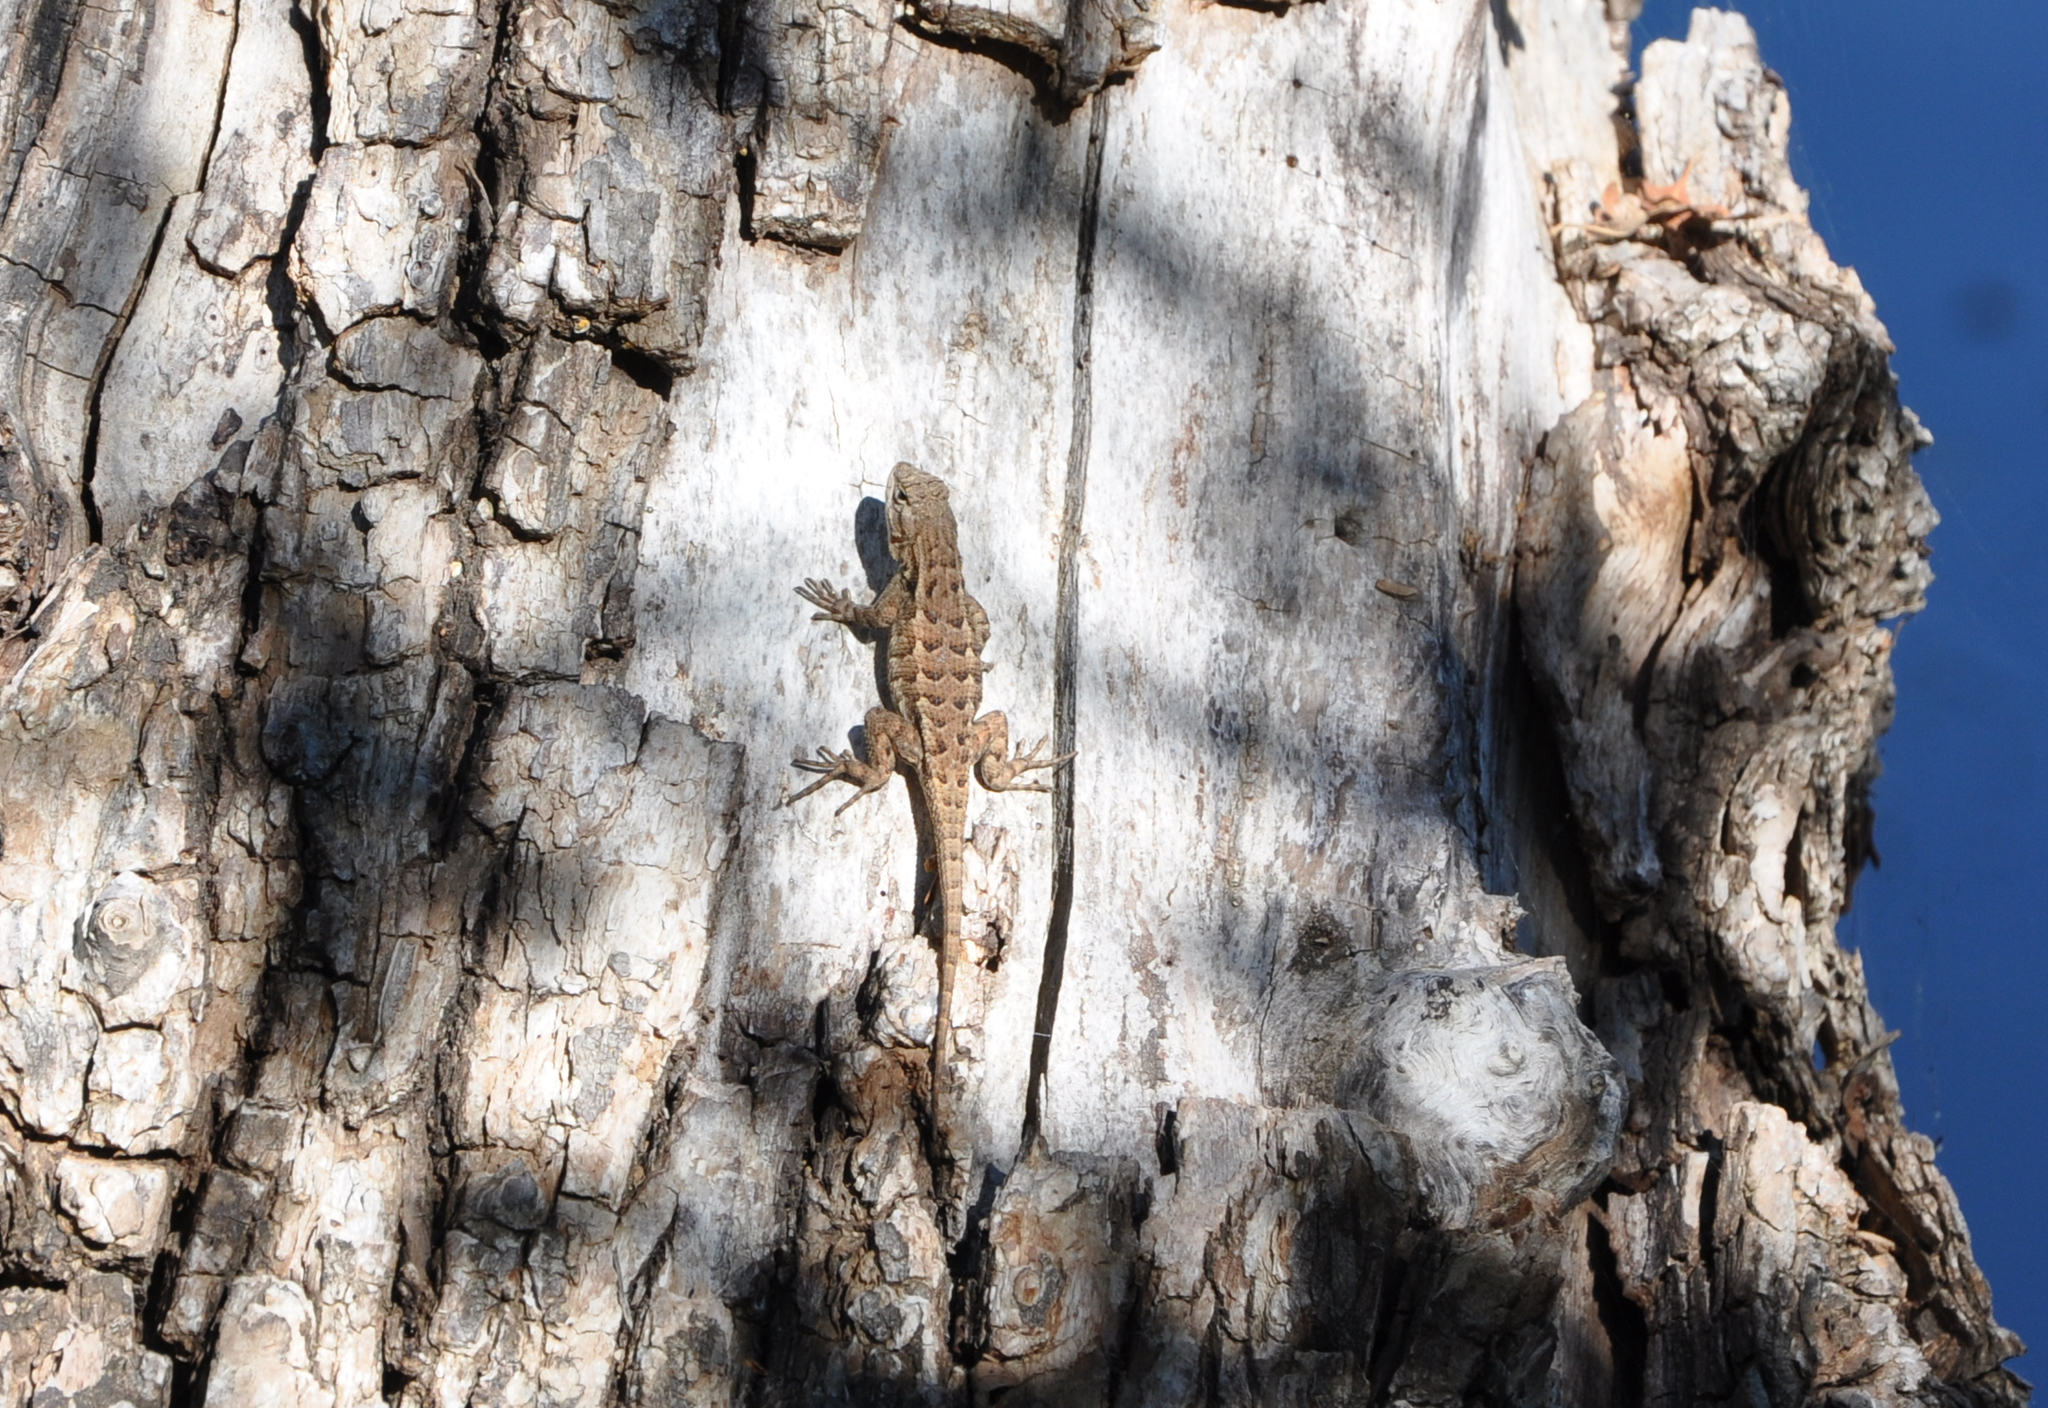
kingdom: Animalia
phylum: Chordata
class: Squamata
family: Phrynosomatidae
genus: Sceloporus
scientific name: Sceloporus occidentalis
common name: Western fence lizard
